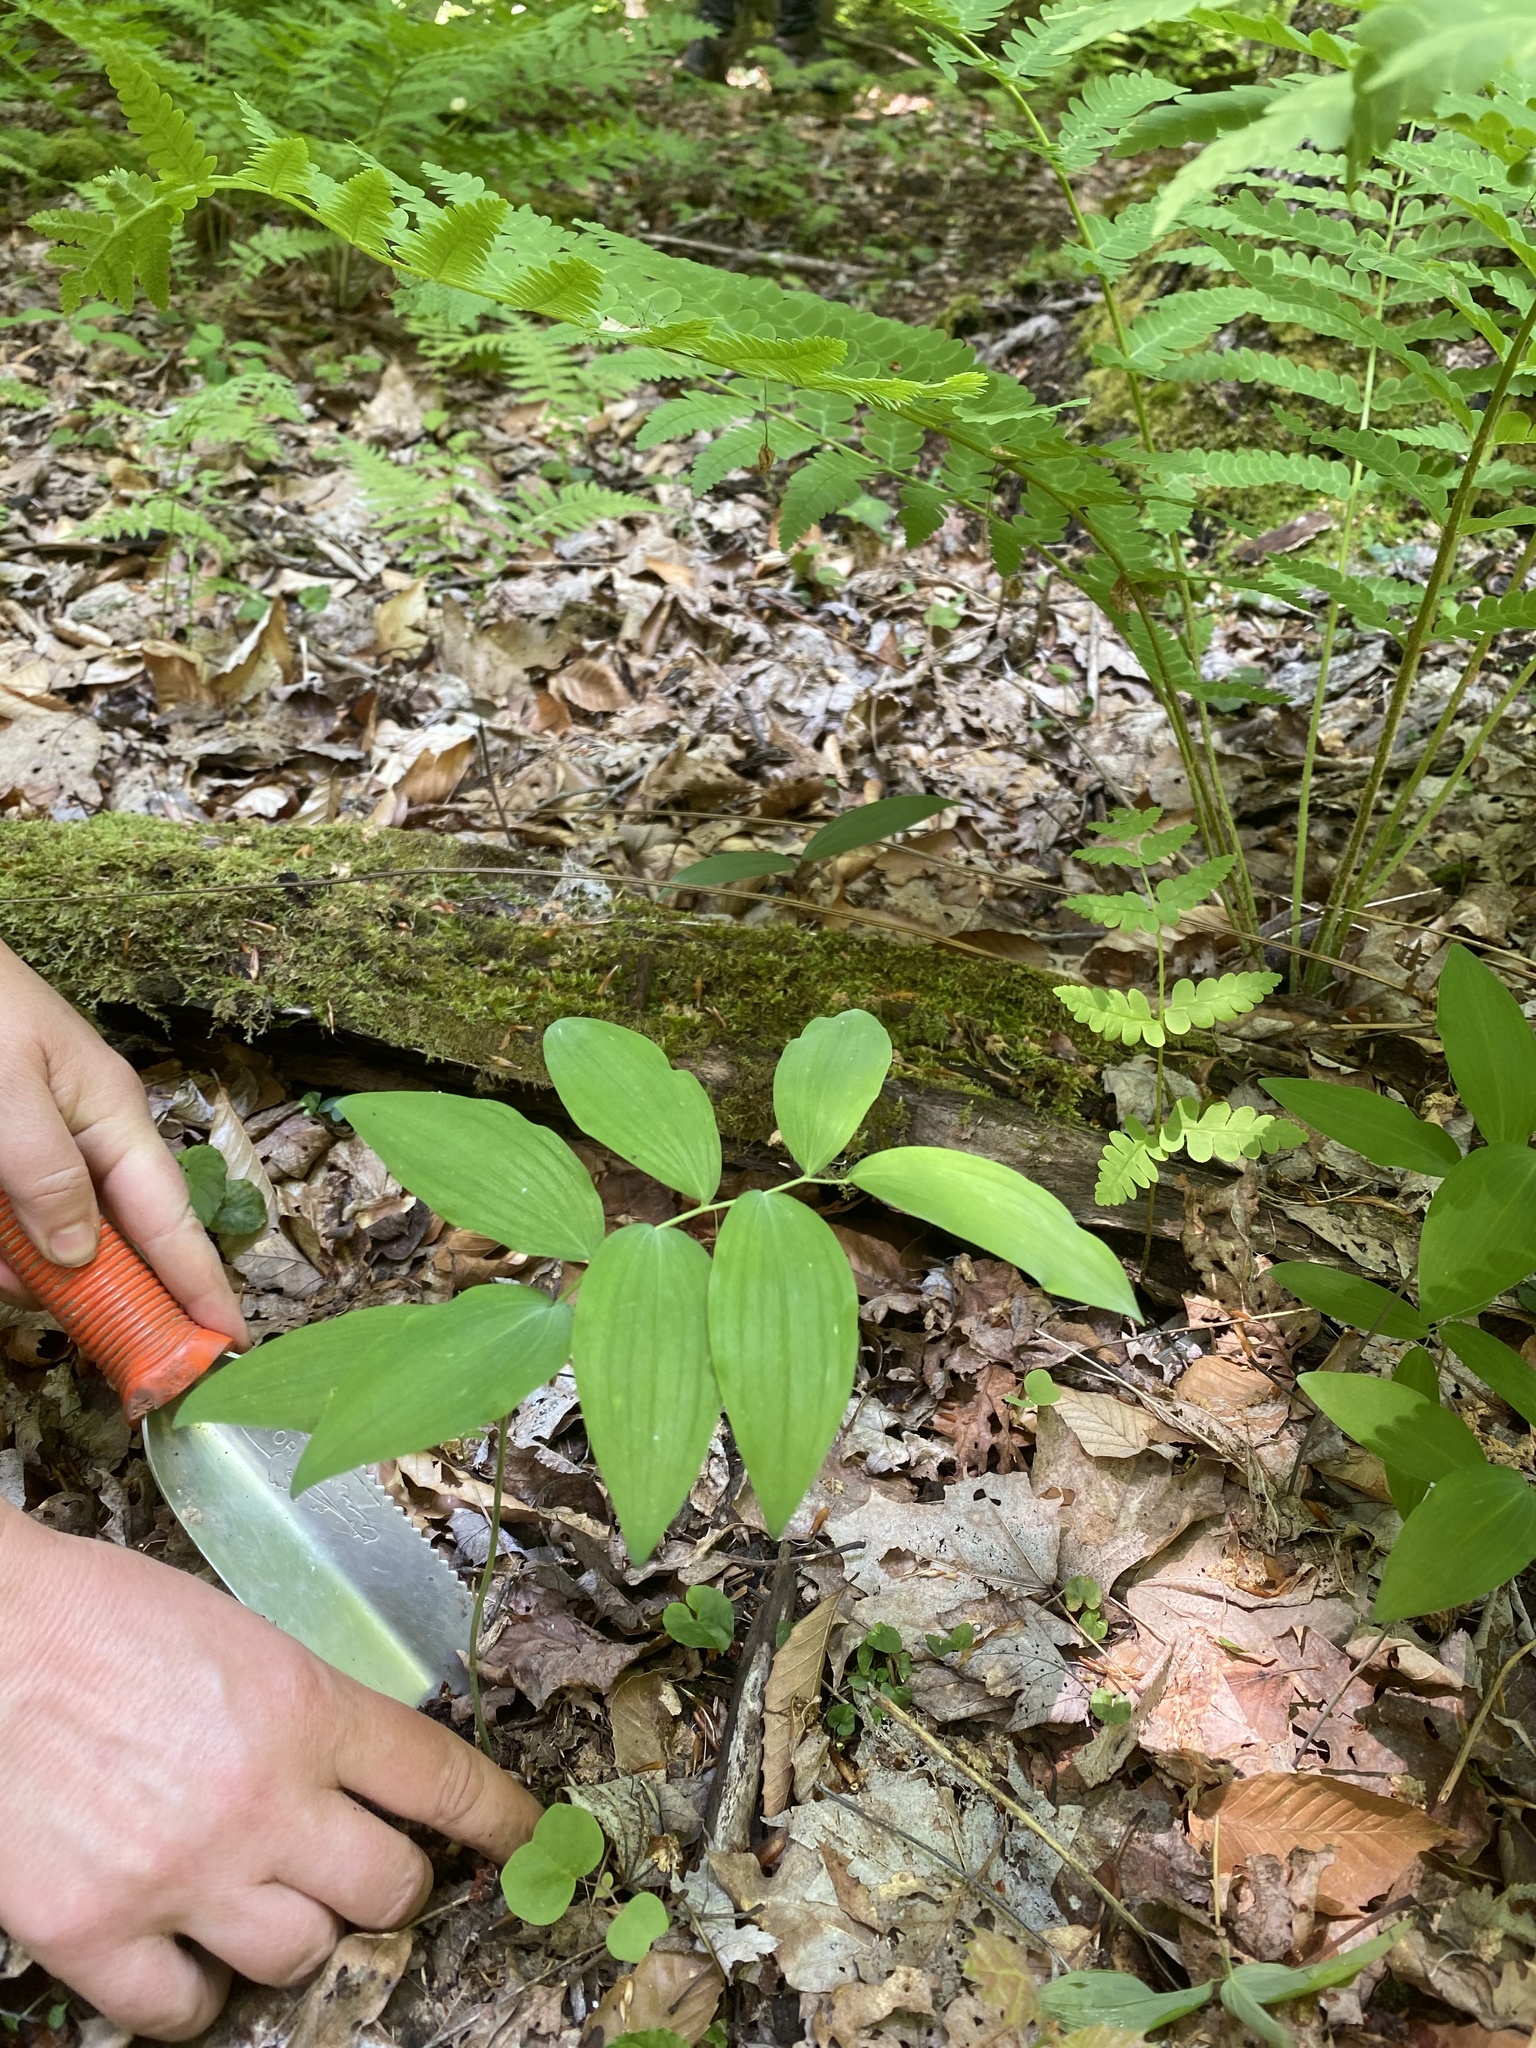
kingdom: Plantae
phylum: Tracheophyta
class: Liliopsida
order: Asparagales
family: Asparagaceae
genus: Polygonatum
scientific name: Polygonatum pubescens
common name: Downy solomon's seal
